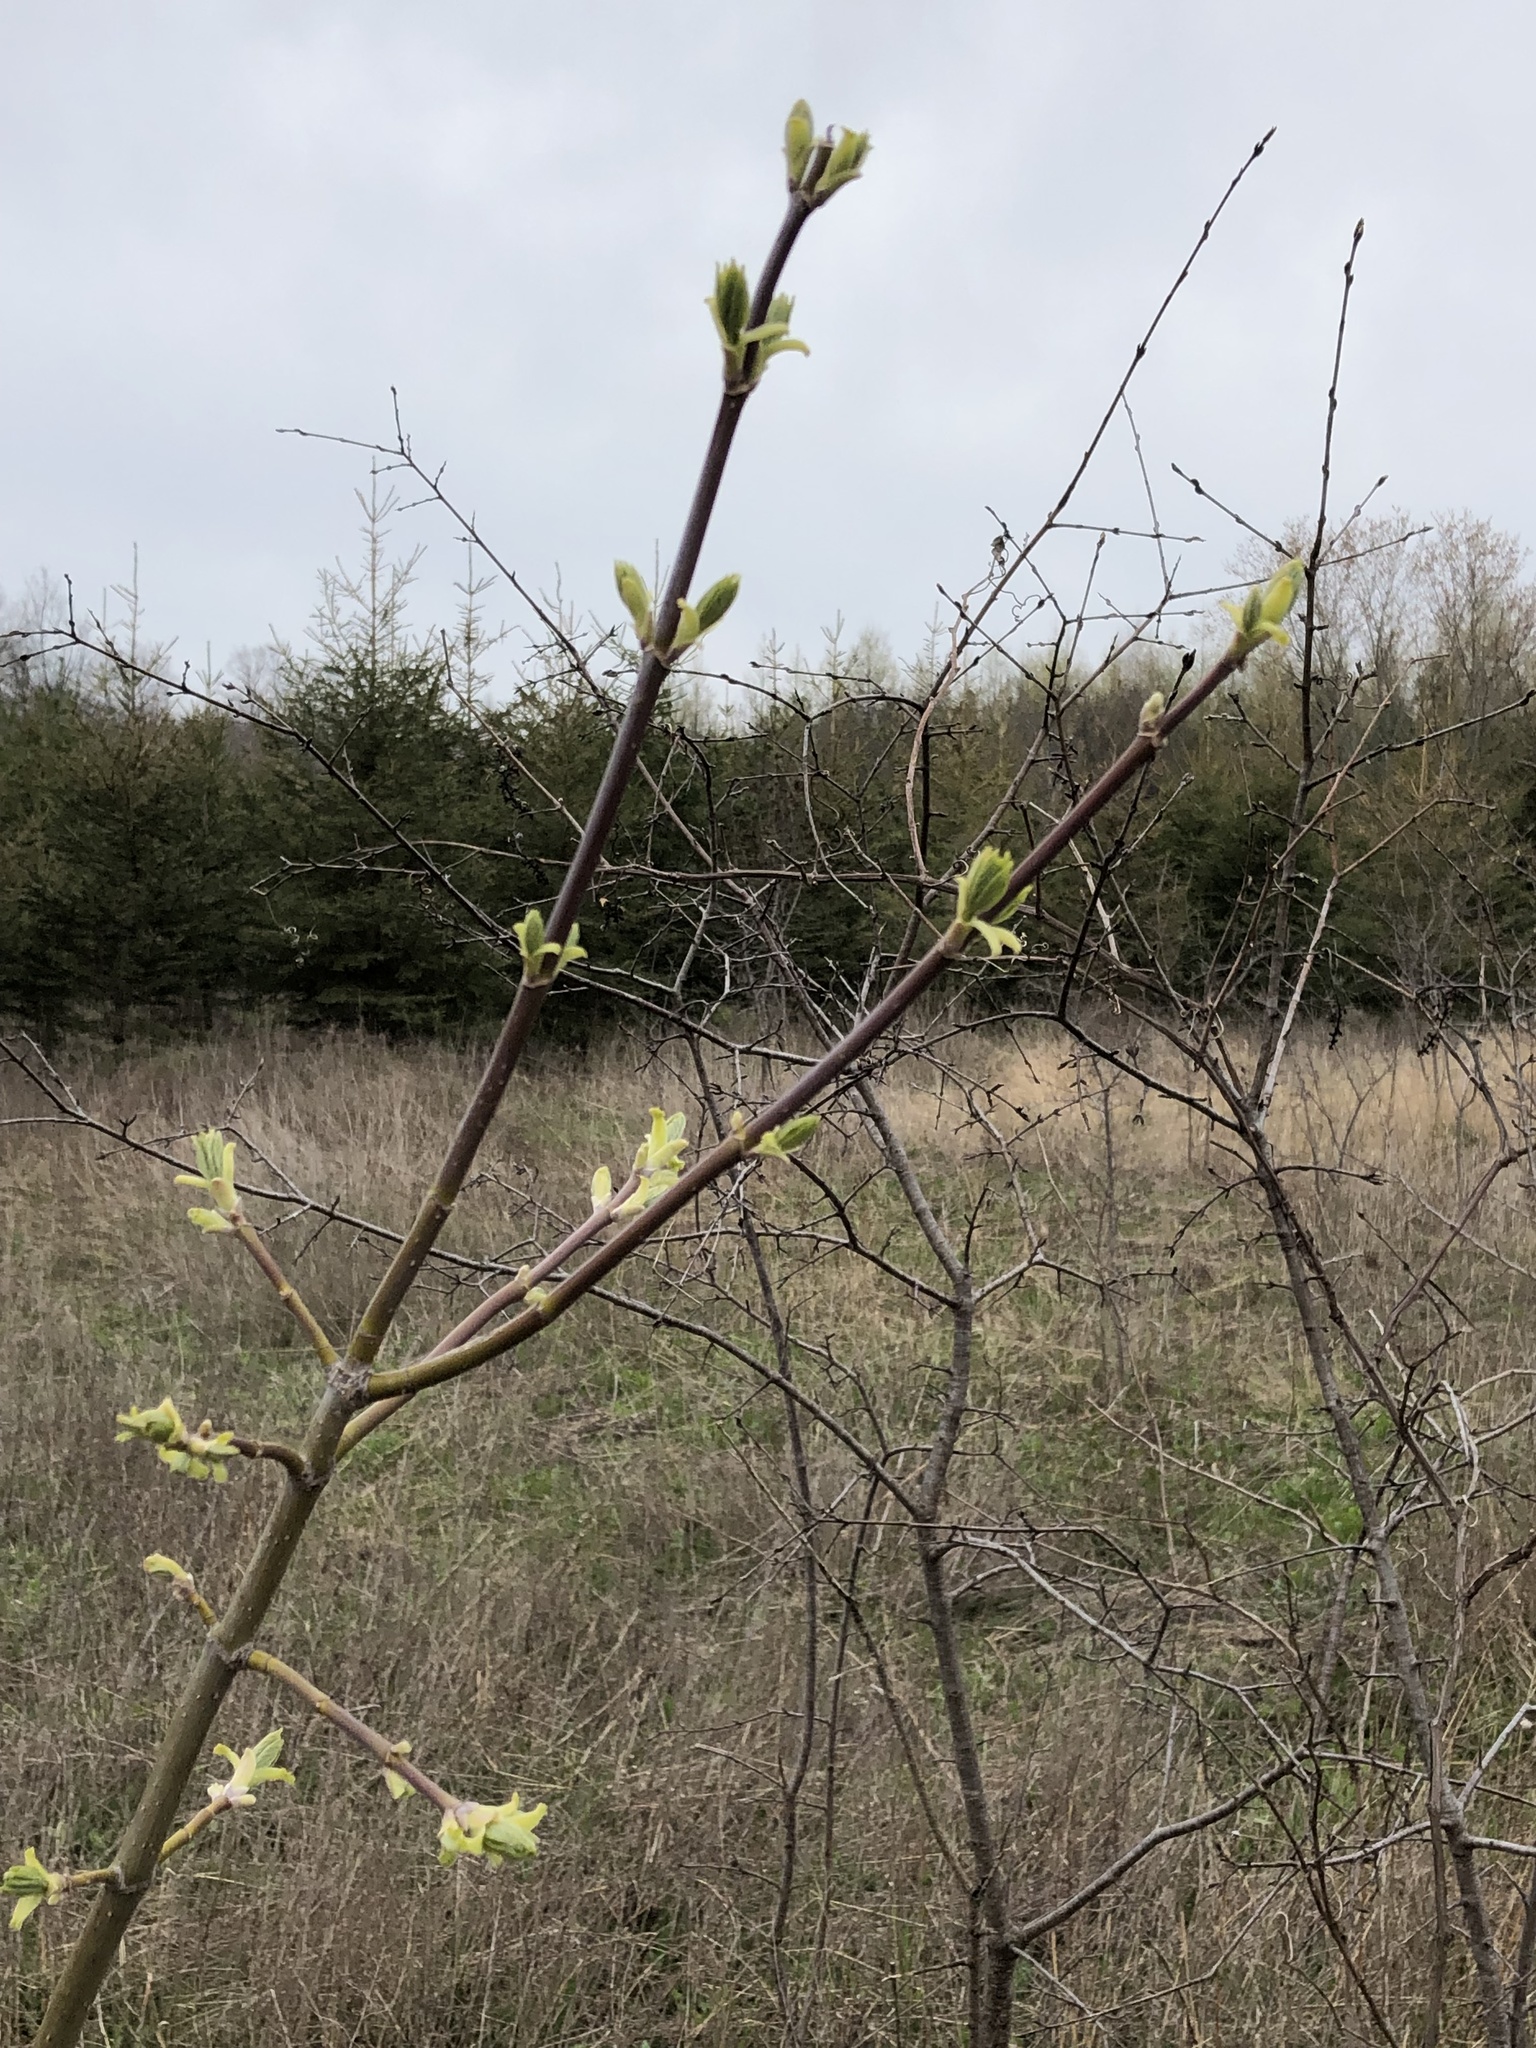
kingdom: Plantae
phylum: Tracheophyta
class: Magnoliopsida
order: Sapindales
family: Sapindaceae
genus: Acer
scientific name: Acer negundo
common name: Ashleaf maple
